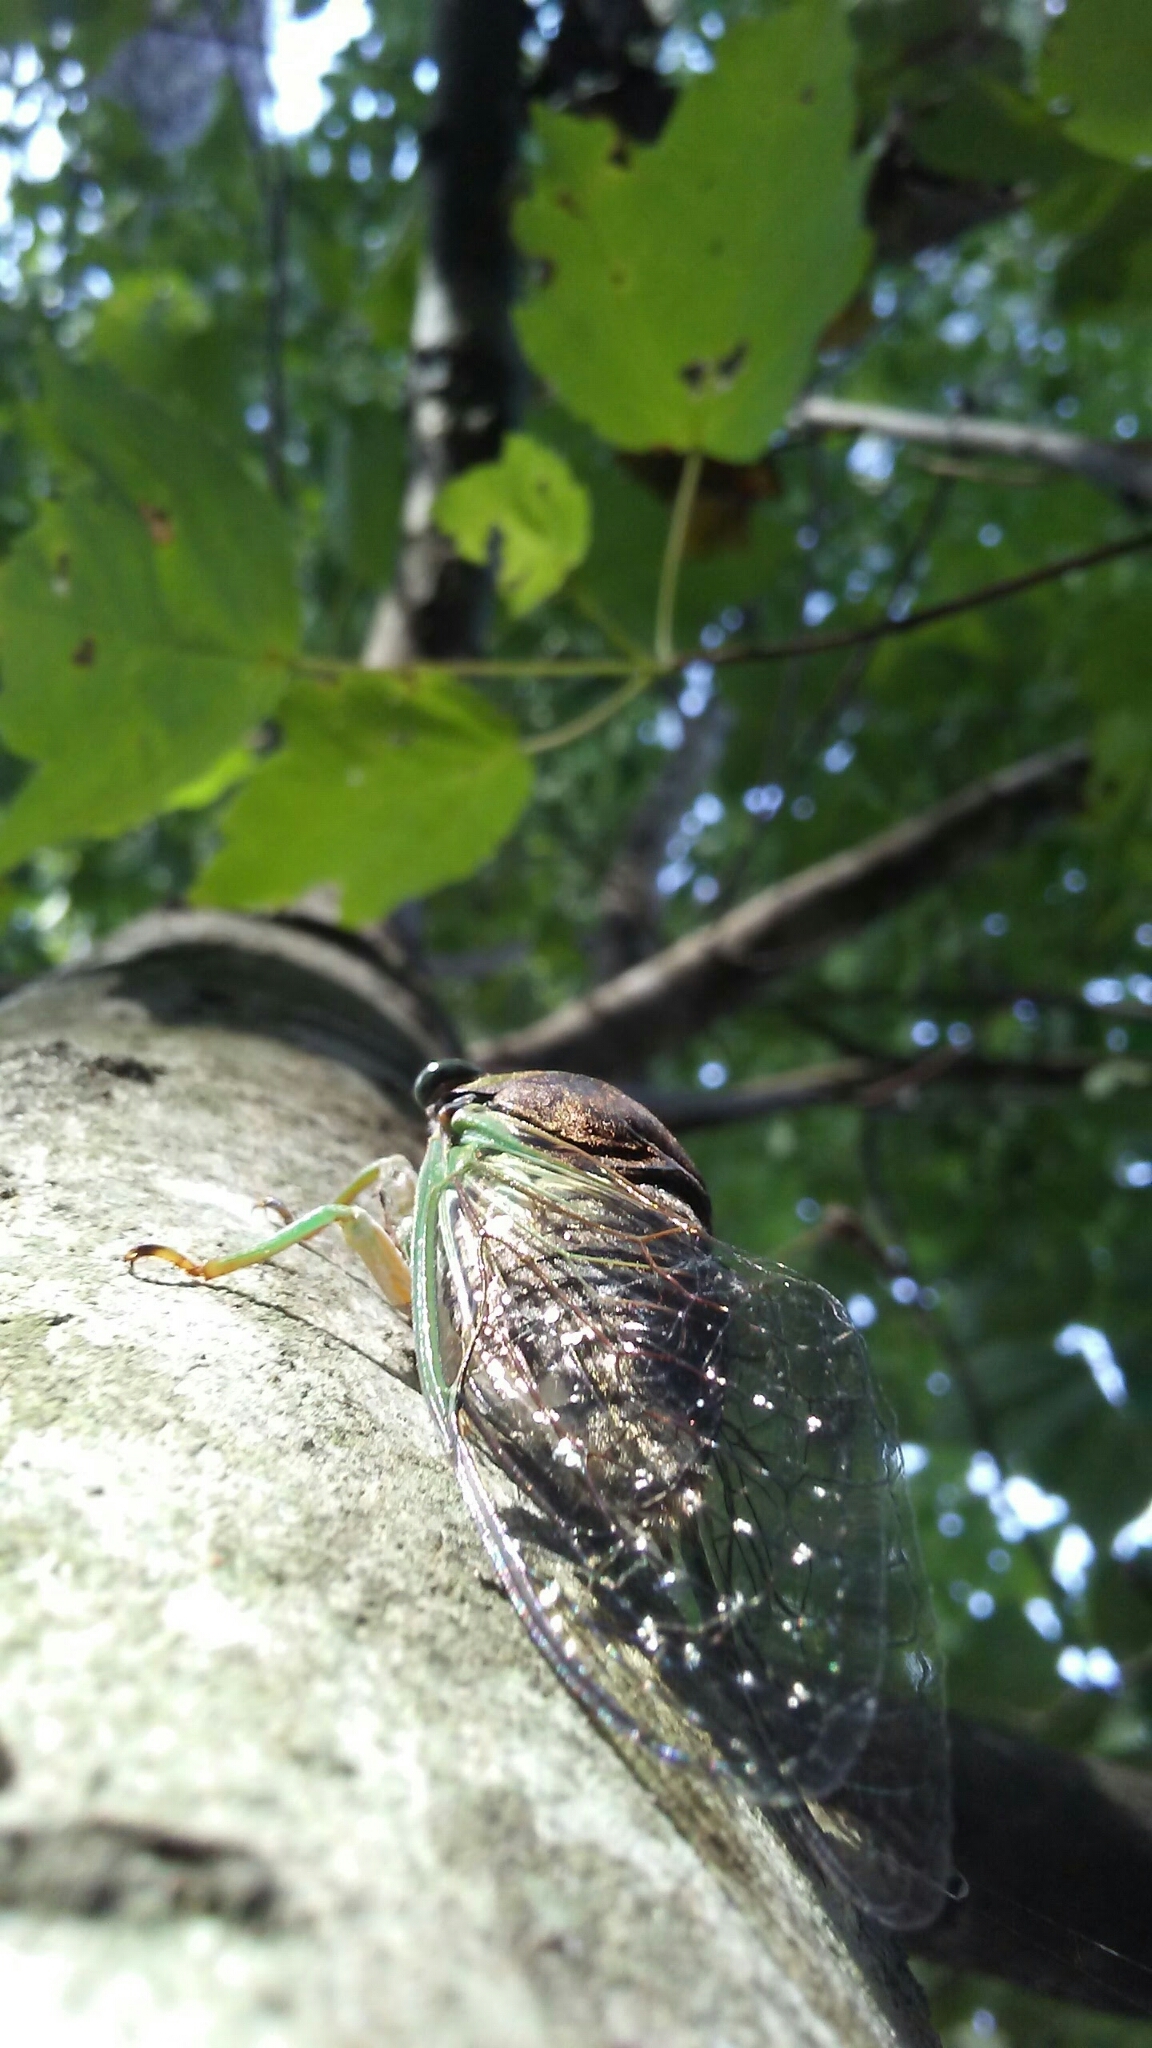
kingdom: Animalia
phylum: Arthropoda
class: Insecta
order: Hemiptera
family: Cicadidae
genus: Neotibicen
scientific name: Neotibicen tibicen
